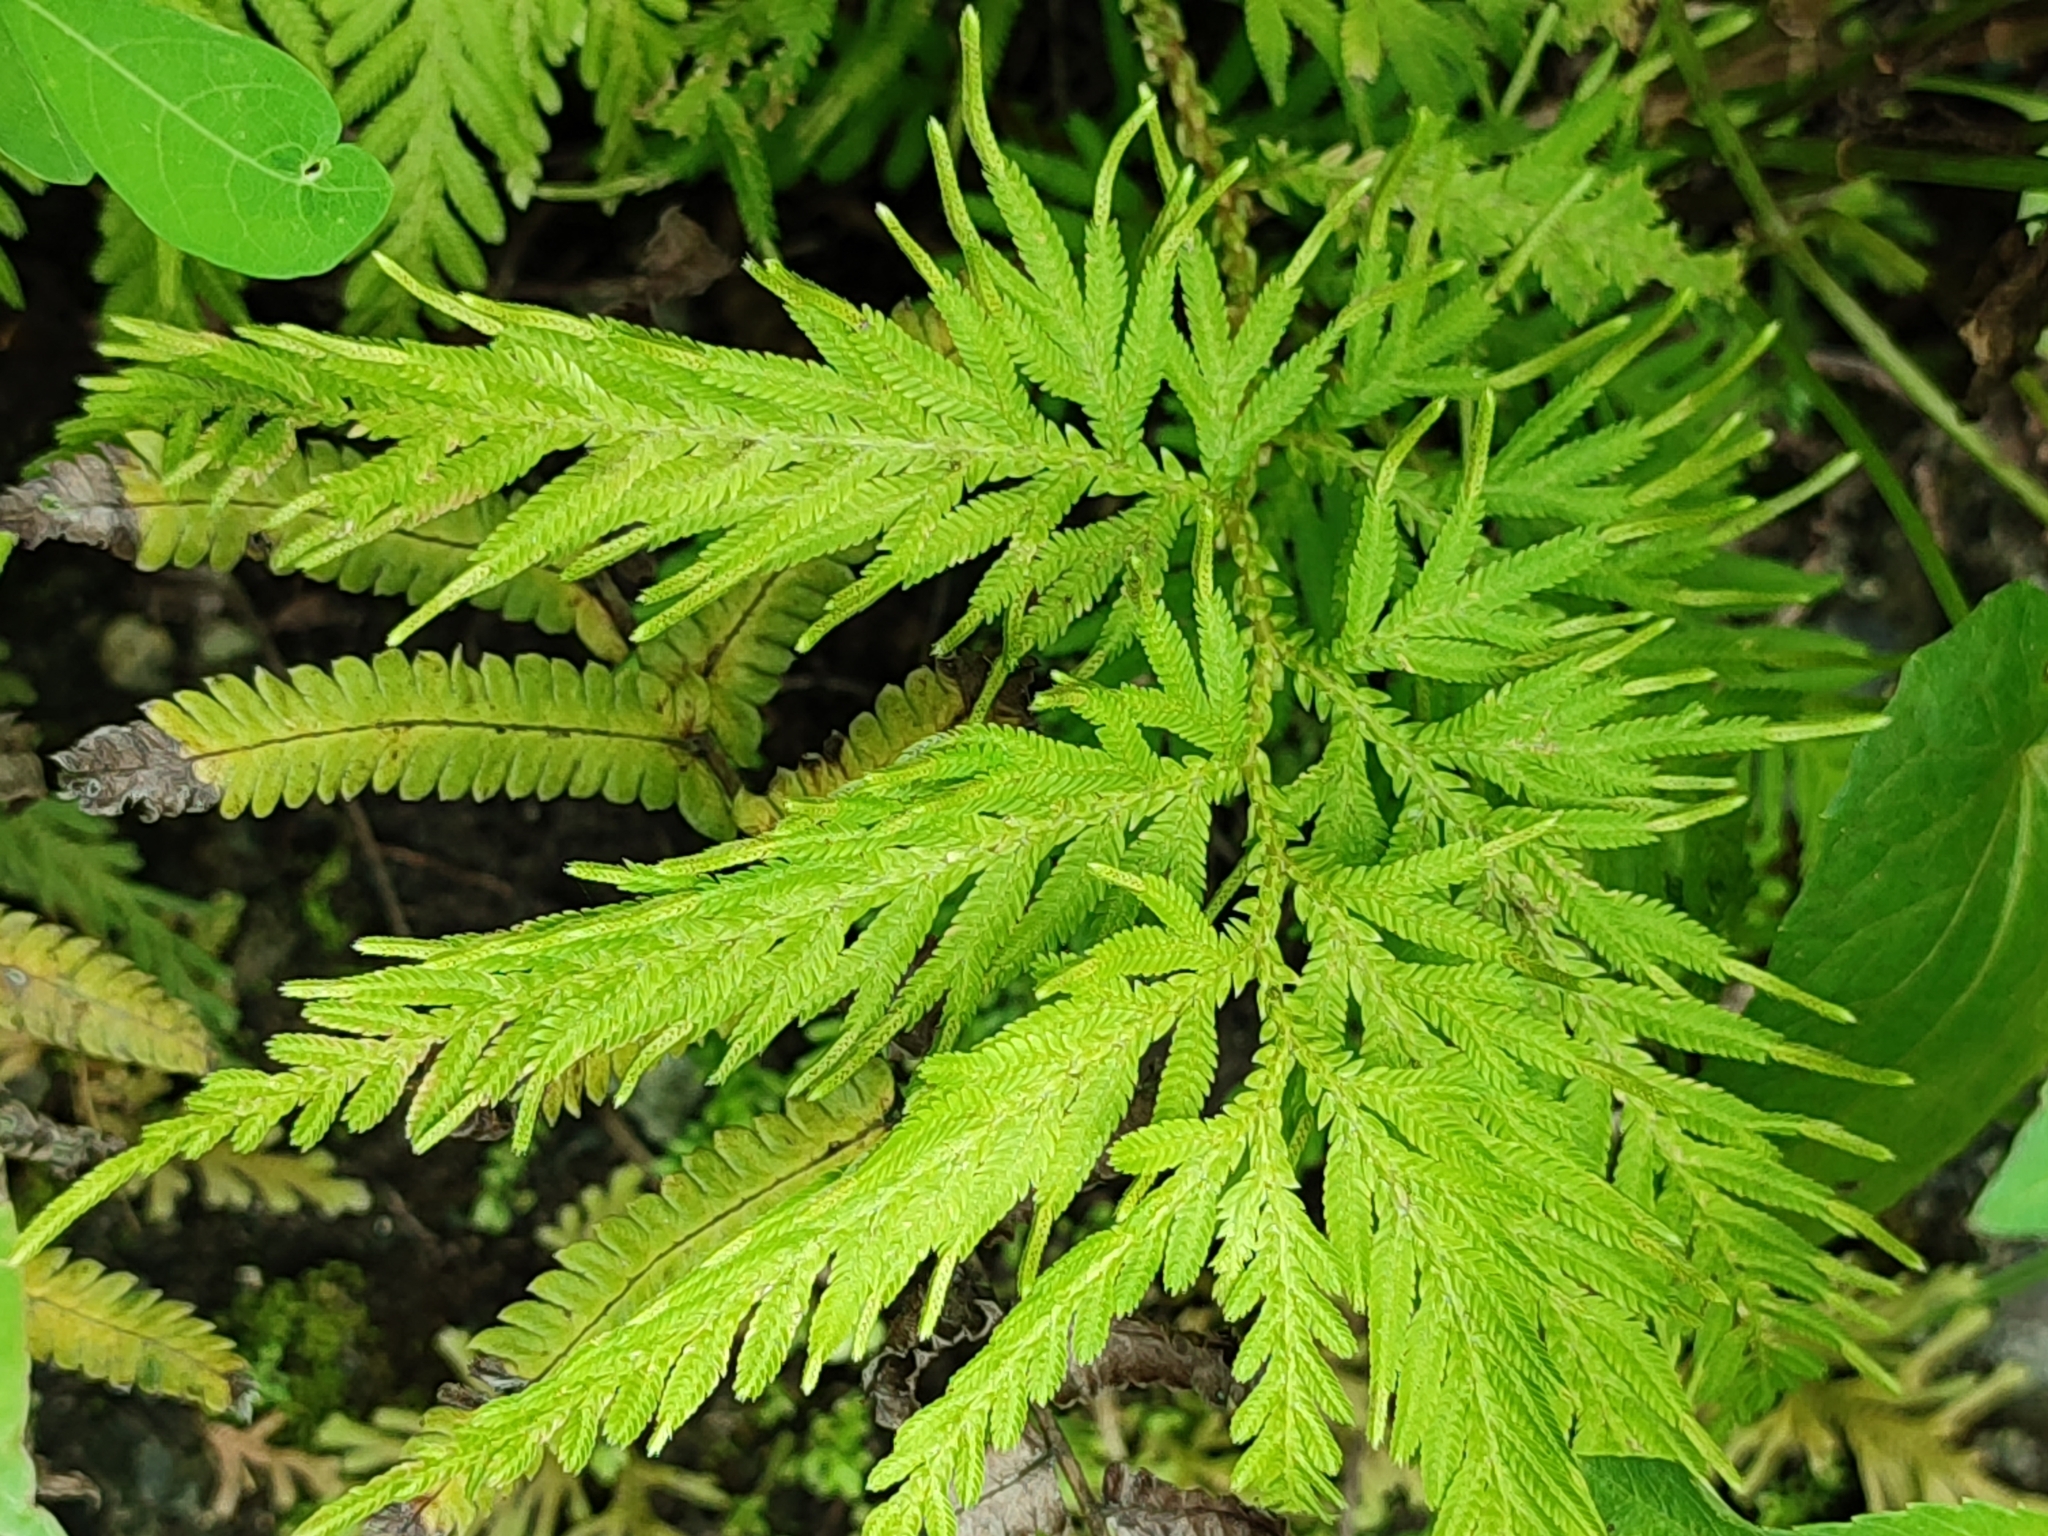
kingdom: Plantae
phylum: Tracheophyta
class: Lycopodiopsida
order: Selaginellales
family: Selaginellaceae
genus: Selaginella
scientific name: Selaginella delicatula
